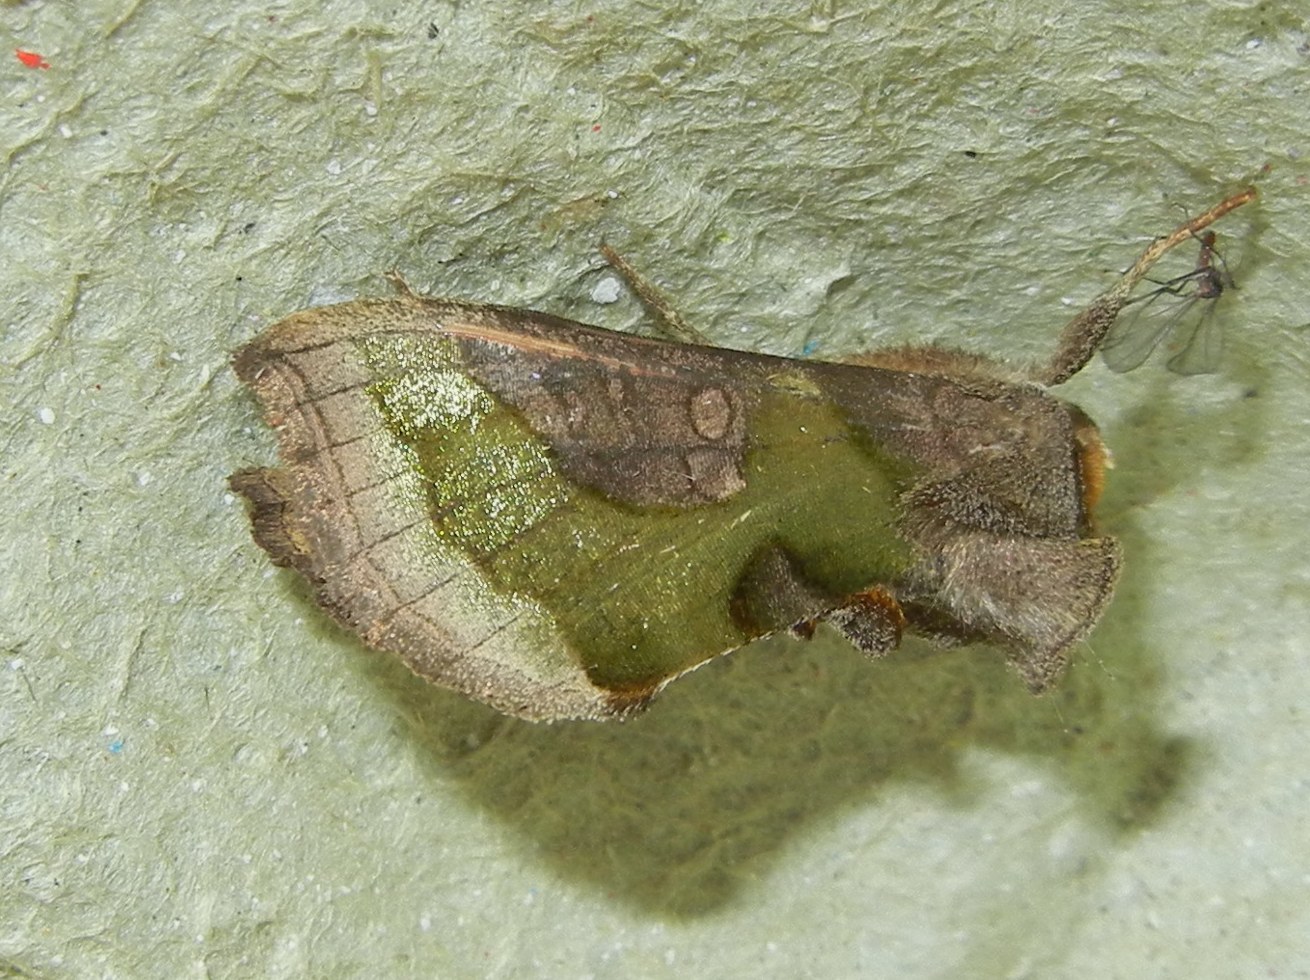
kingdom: Animalia
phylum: Arthropoda
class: Insecta
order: Lepidoptera
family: Noctuidae
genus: Diachrysia
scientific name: Diachrysia chrysitis
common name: Burnished brass
